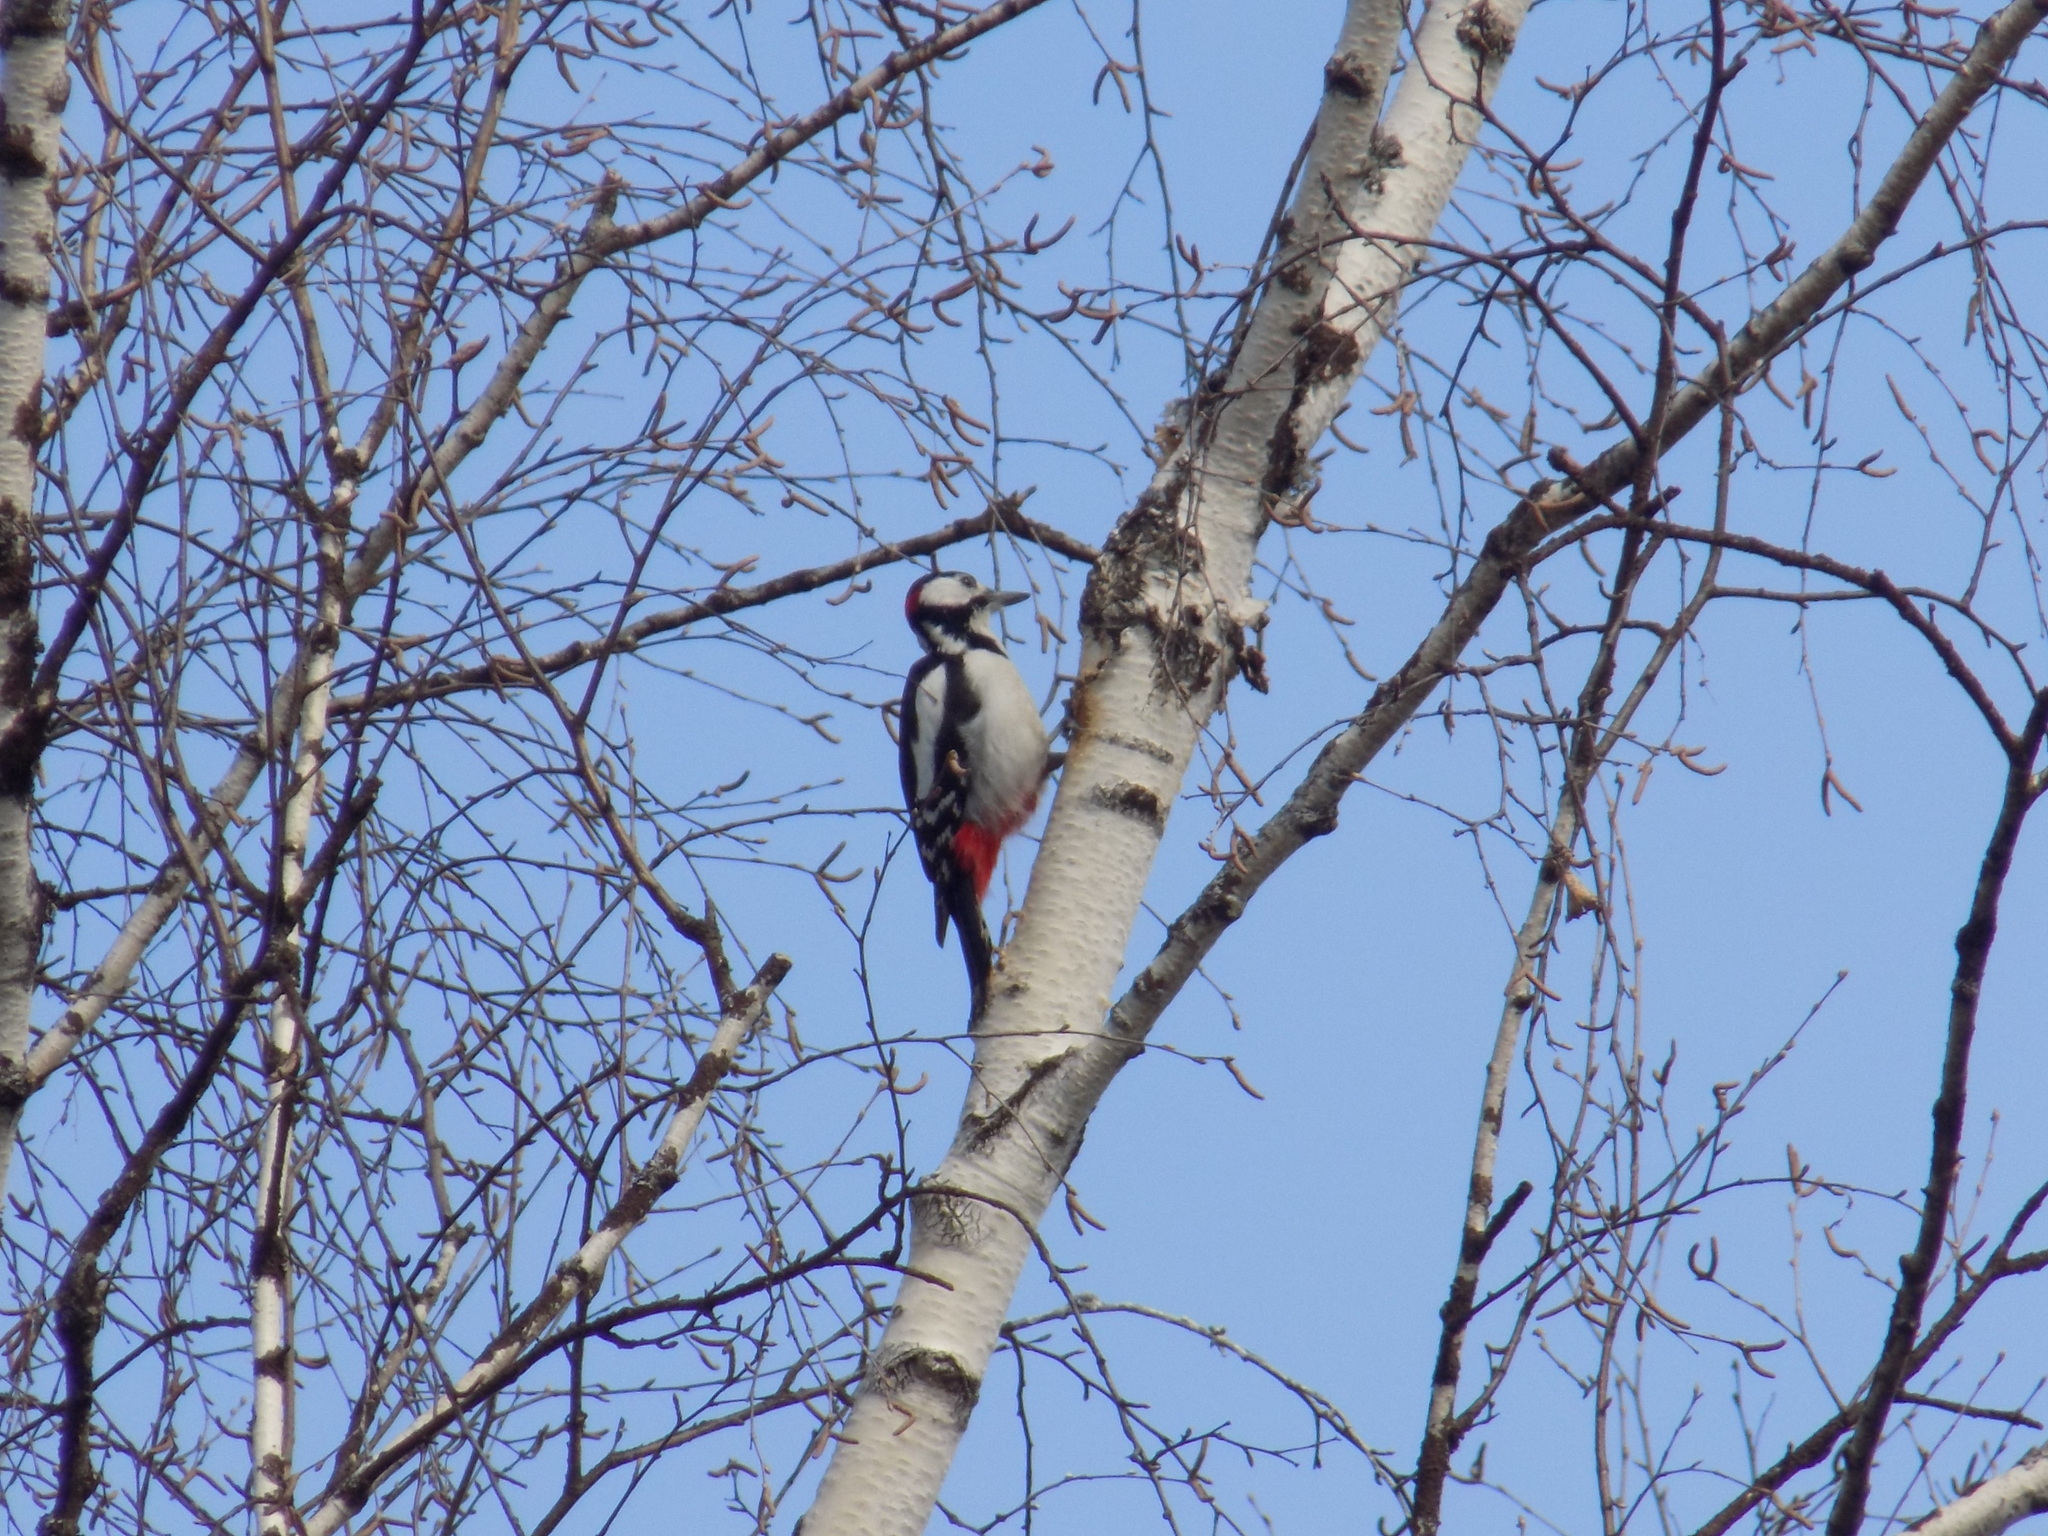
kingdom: Animalia
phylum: Chordata
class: Aves
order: Piciformes
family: Picidae
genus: Dendrocopos
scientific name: Dendrocopos major
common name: Great spotted woodpecker
